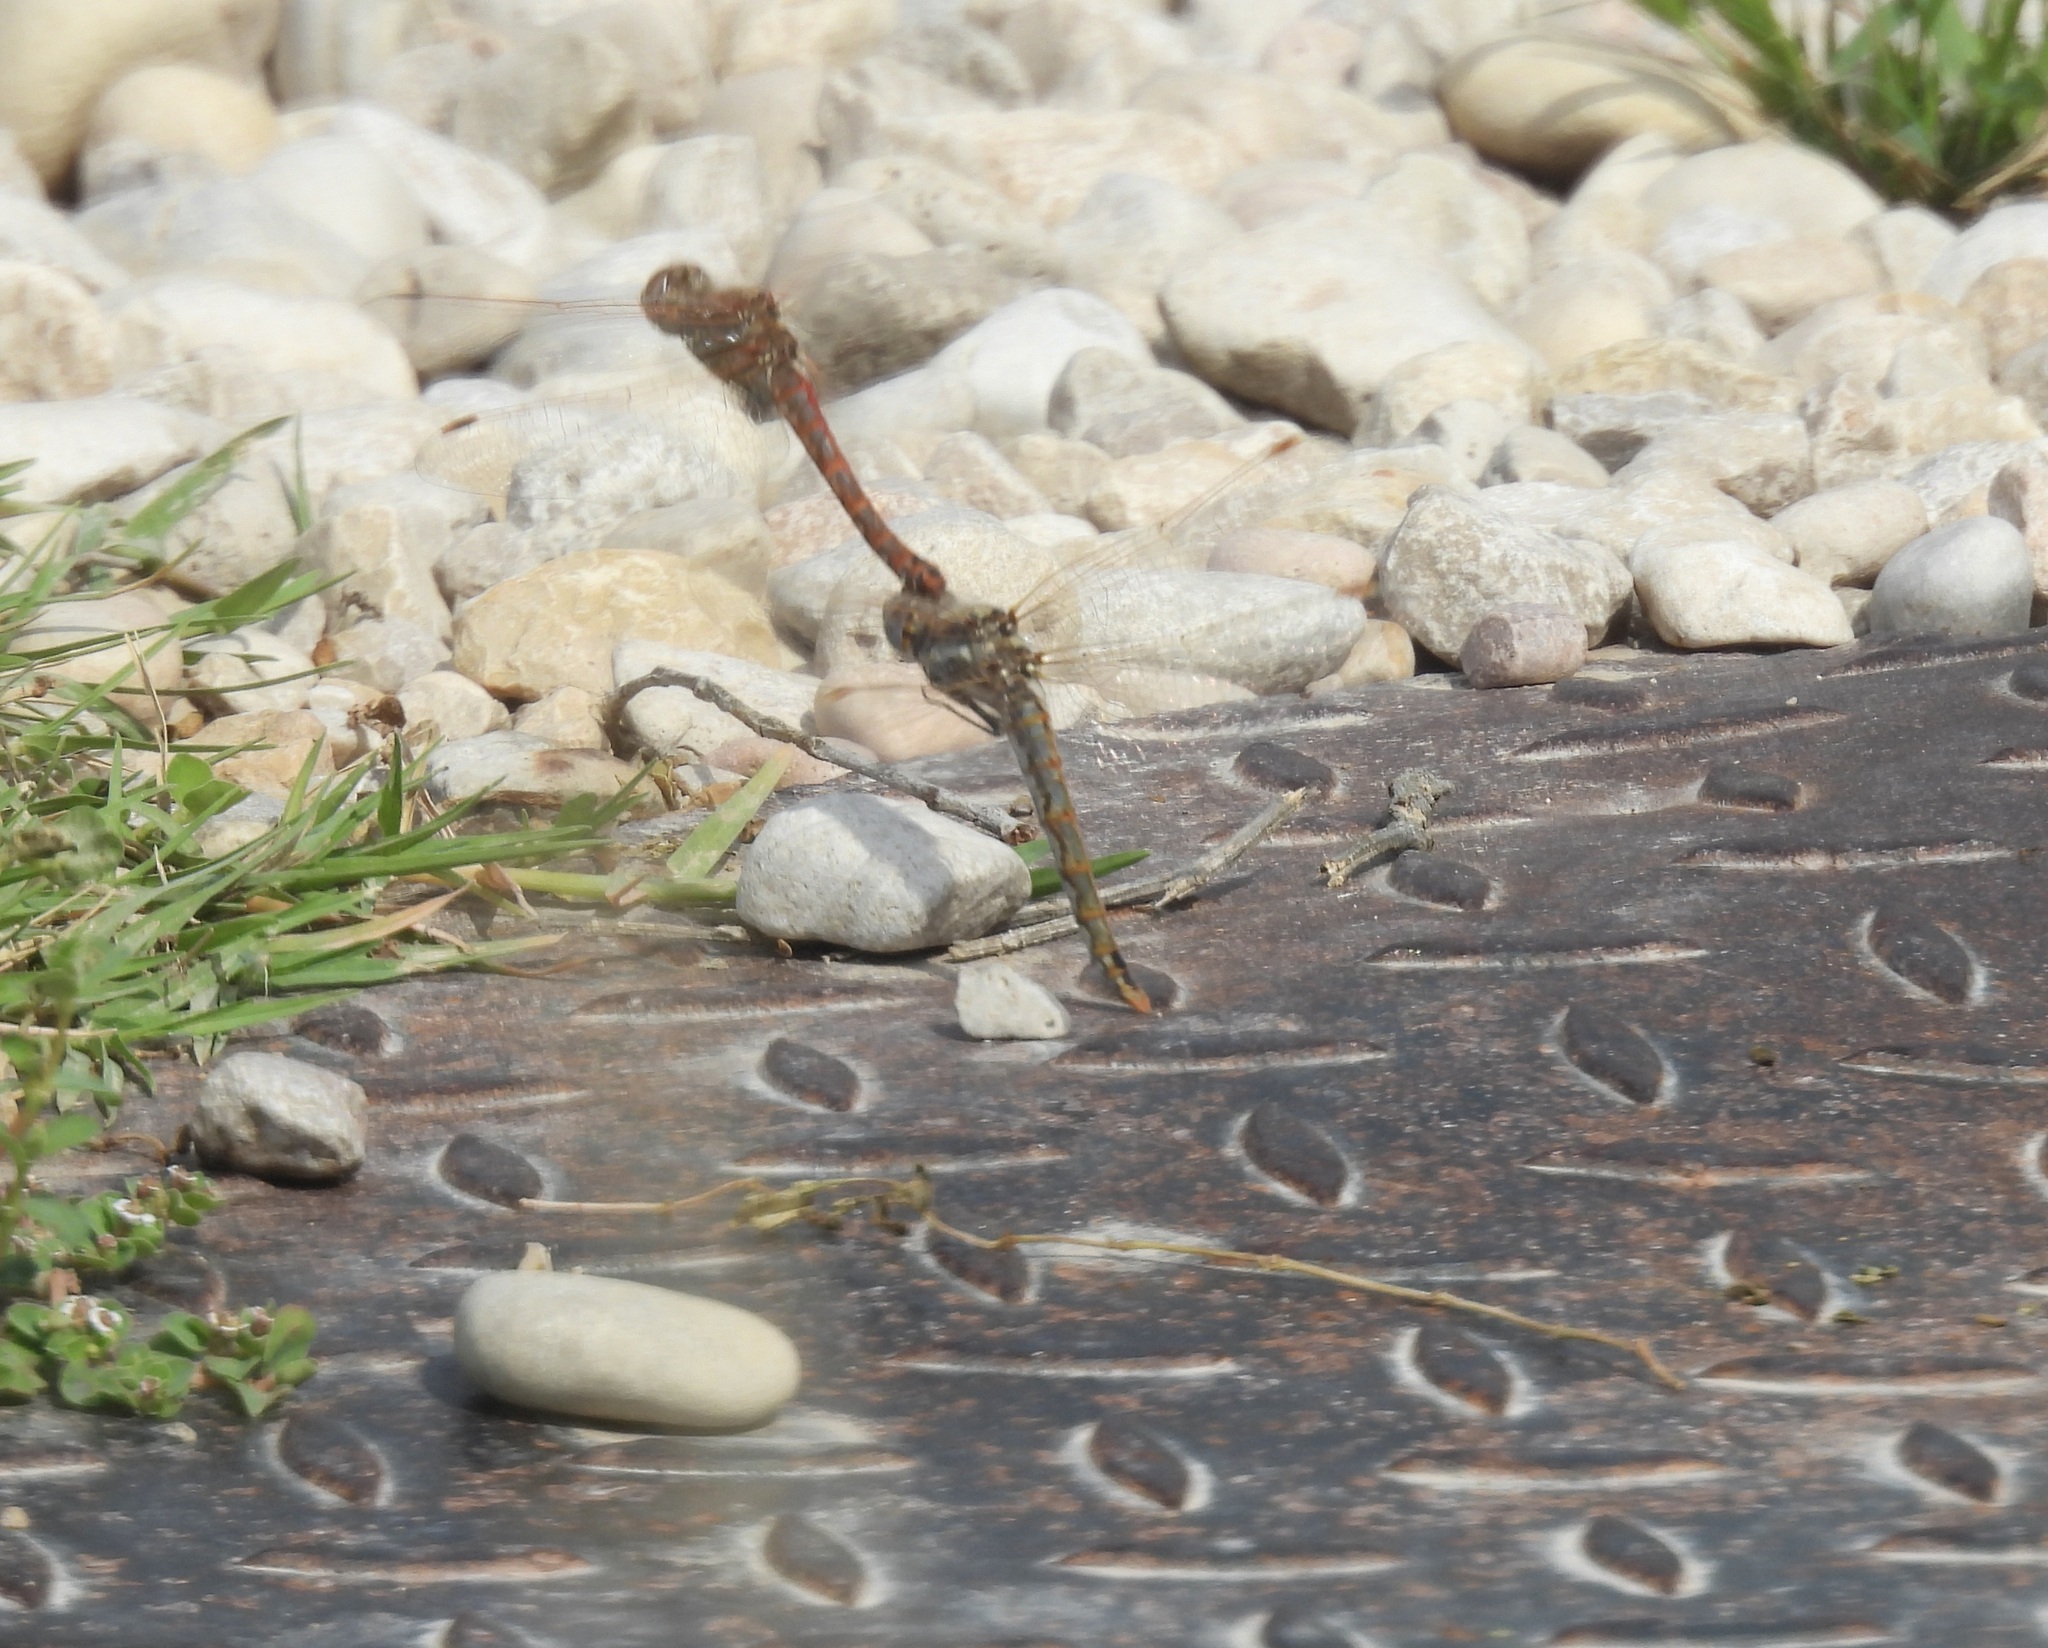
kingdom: Animalia
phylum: Arthropoda
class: Insecta
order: Odonata
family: Libellulidae
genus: Sympetrum
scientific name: Sympetrum corruptum
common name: Variegated meadowhawk
